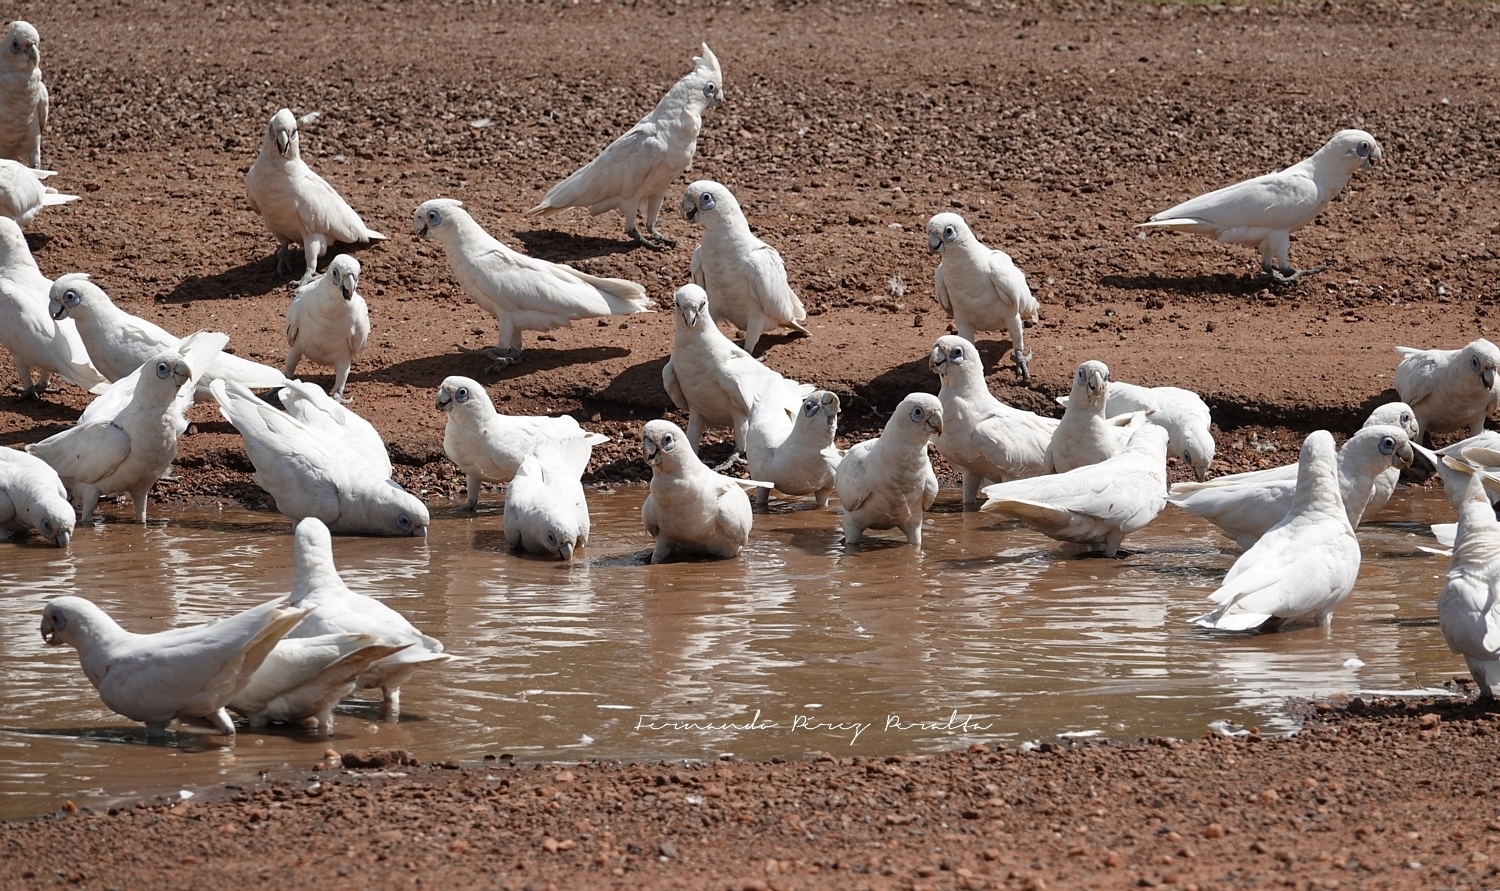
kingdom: Animalia
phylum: Chordata
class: Aves
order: Psittaciformes
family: Psittacidae
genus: Cacatua
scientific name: Cacatua sanguinea
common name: Little corella
